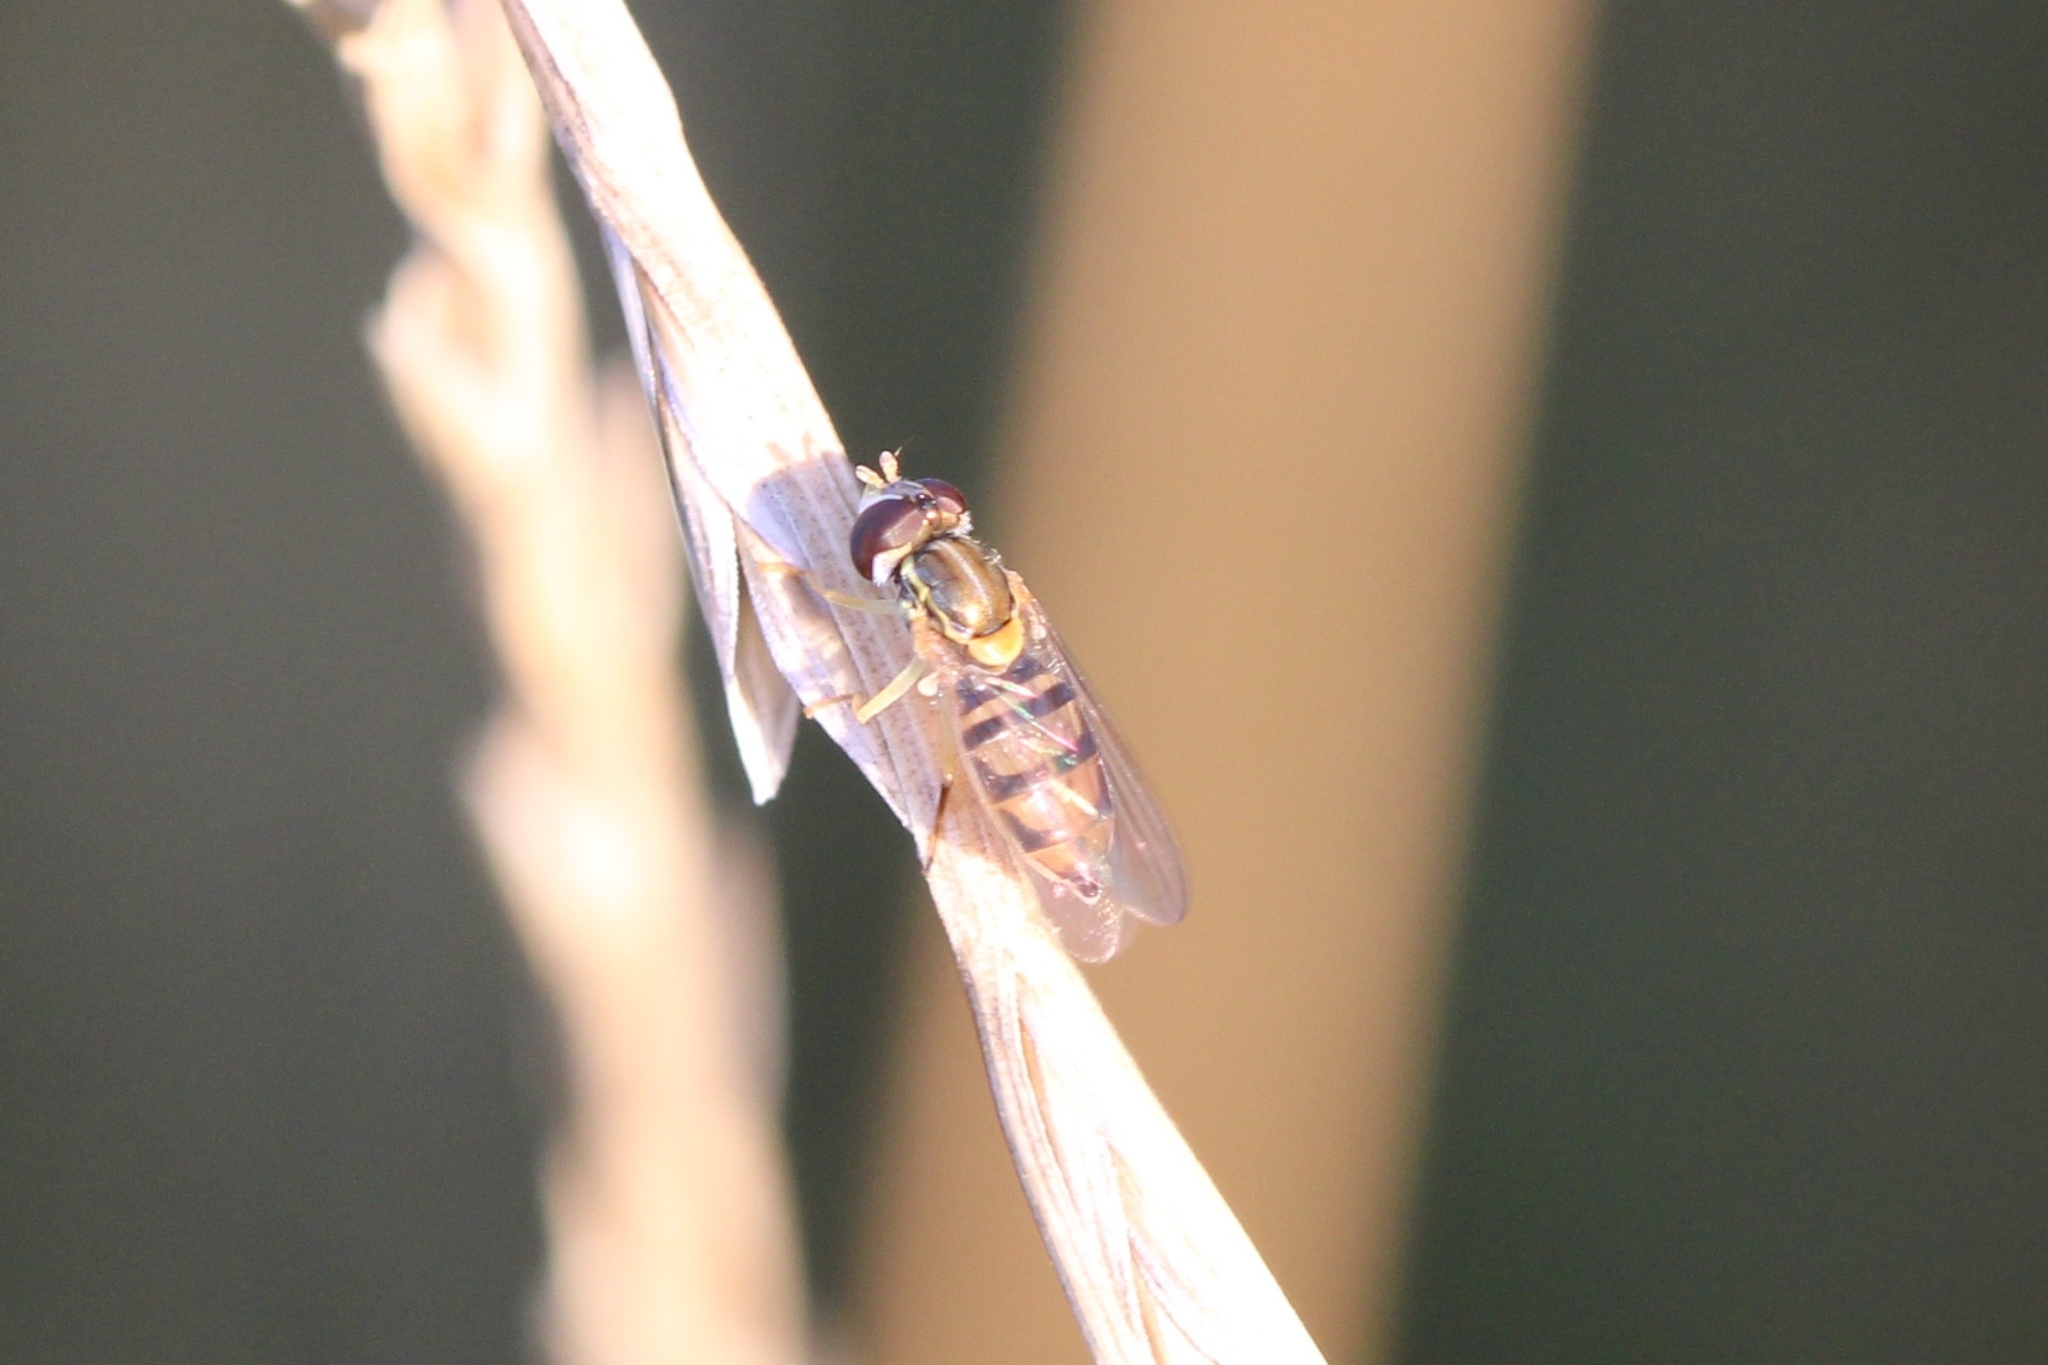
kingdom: Animalia
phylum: Arthropoda
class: Insecta
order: Diptera
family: Syrphidae
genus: Toxomerus
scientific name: Toxomerus marginatus
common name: Syrphid fly
